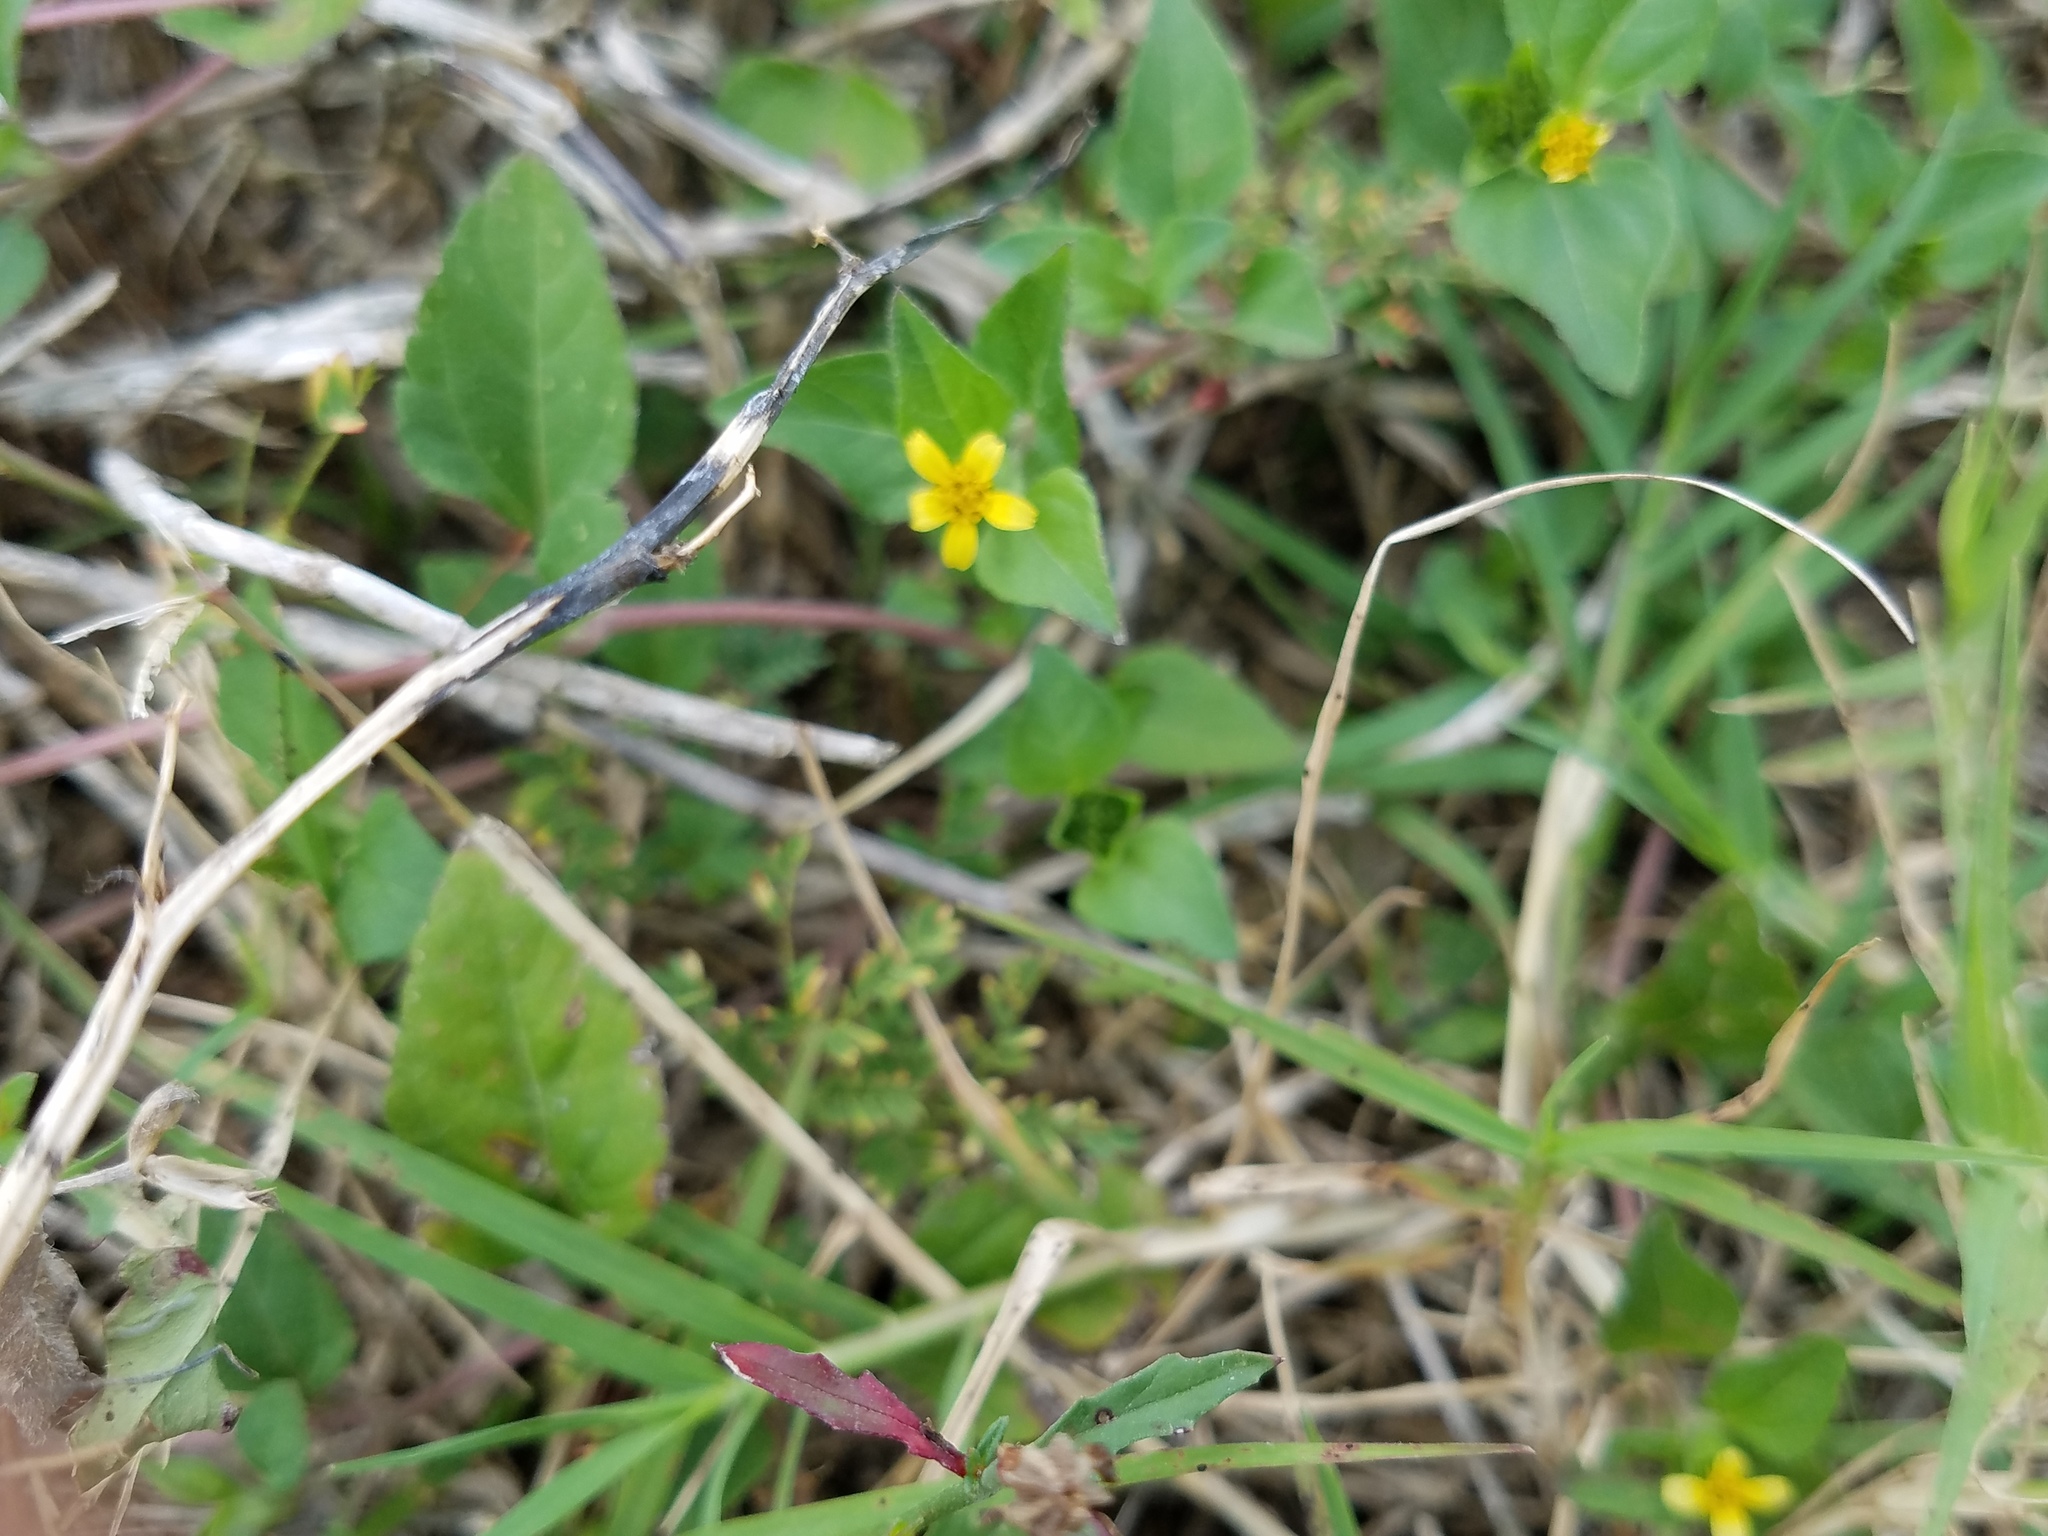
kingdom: Plantae
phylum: Tracheophyta
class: Magnoliopsida
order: Asterales
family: Asteraceae
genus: Calyptocarpus
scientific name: Calyptocarpus vialis
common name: Straggler daisy
